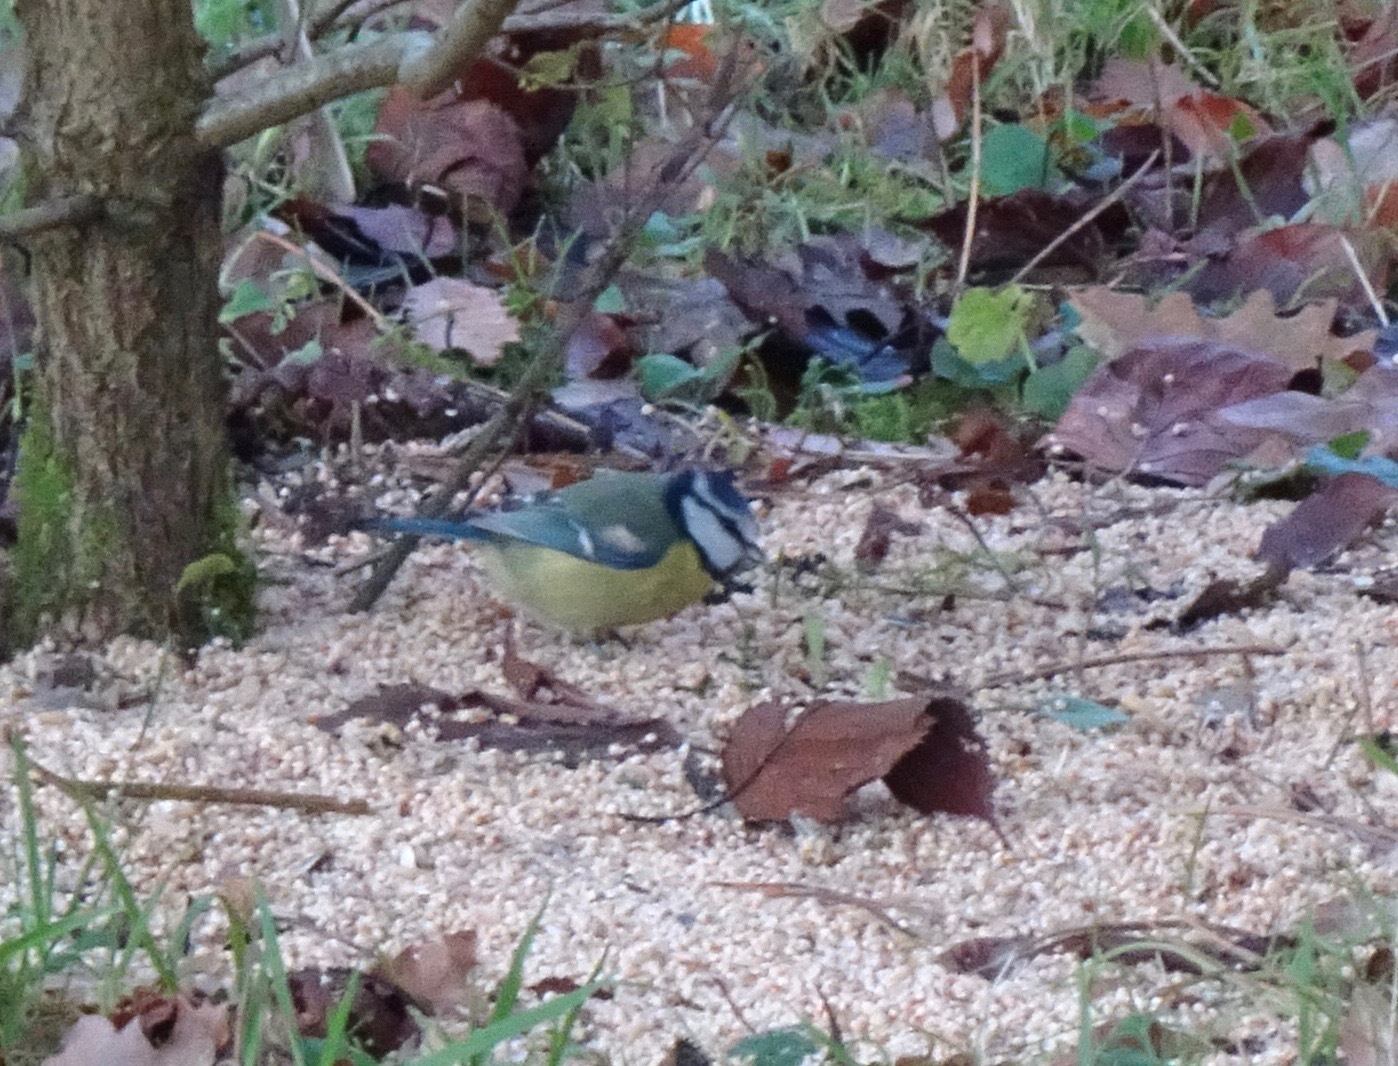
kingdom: Animalia
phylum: Chordata
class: Aves
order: Passeriformes
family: Paridae
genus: Cyanistes
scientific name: Cyanistes caeruleus
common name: Eurasian blue tit
